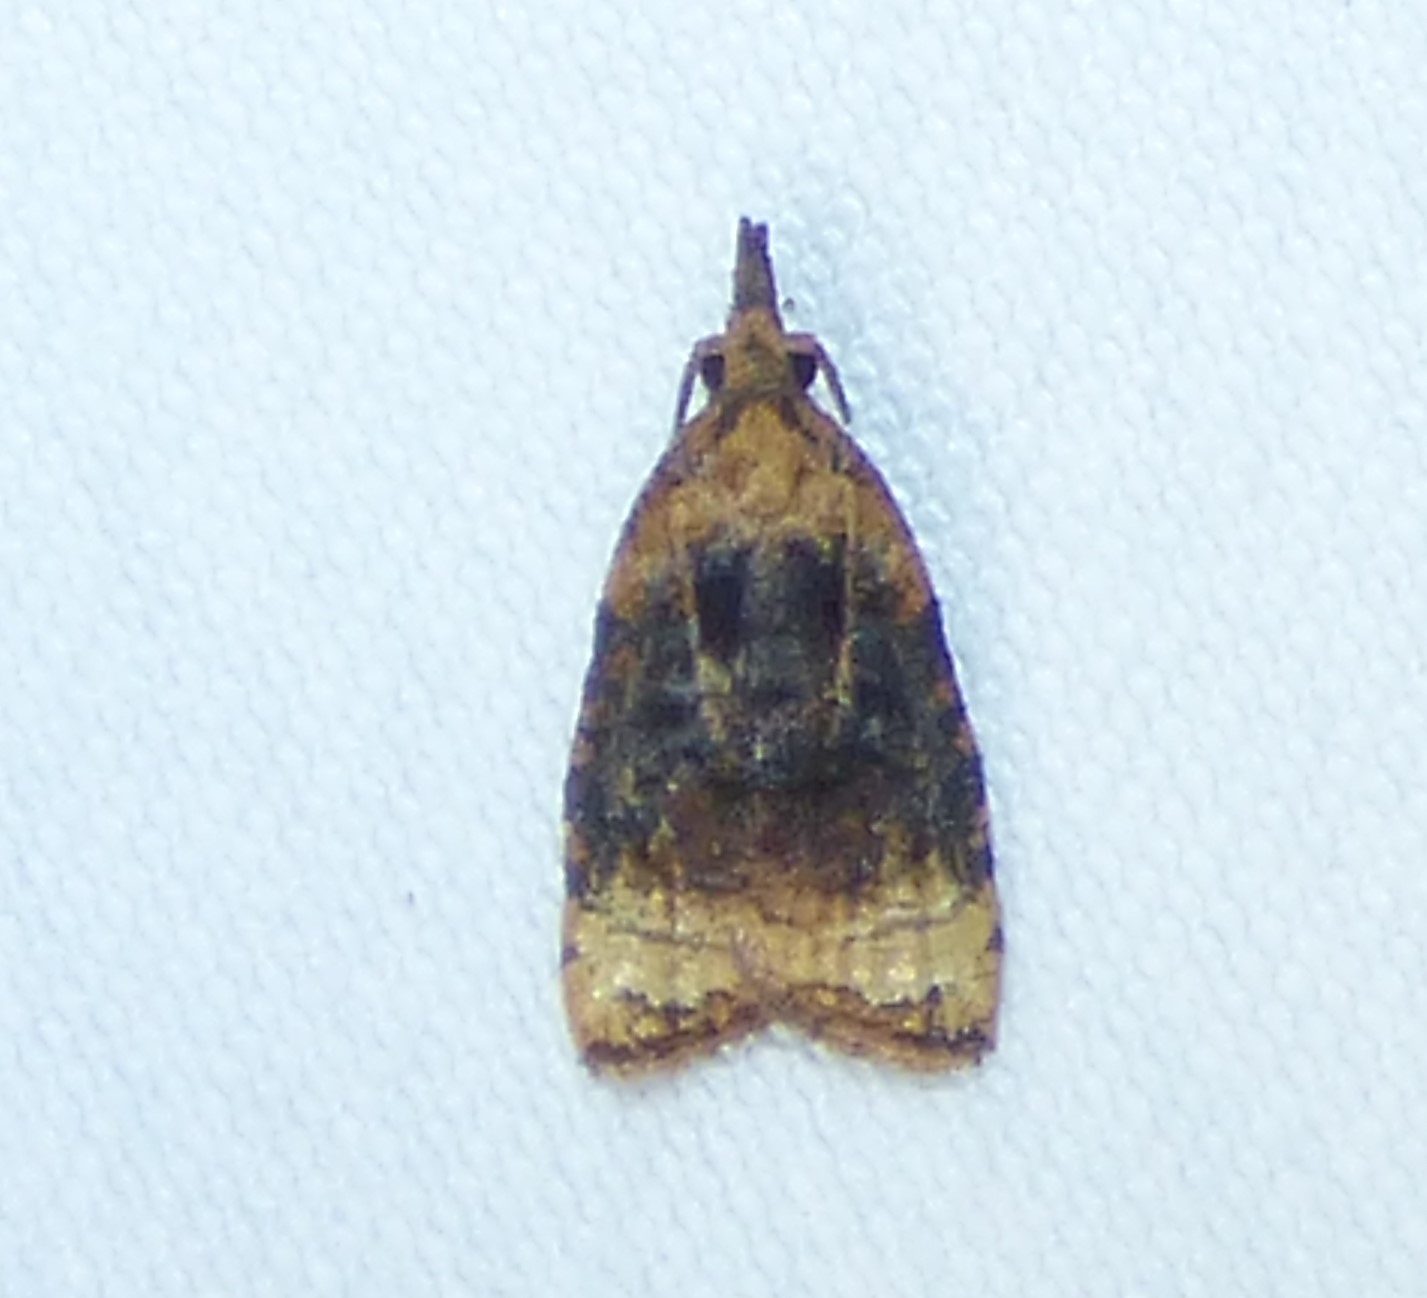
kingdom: Animalia
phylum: Arthropoda
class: Insecta
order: Lepidoptera
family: Tortricidae
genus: Platynota
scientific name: Platynota flavedana
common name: Black-shaded platynota moth
